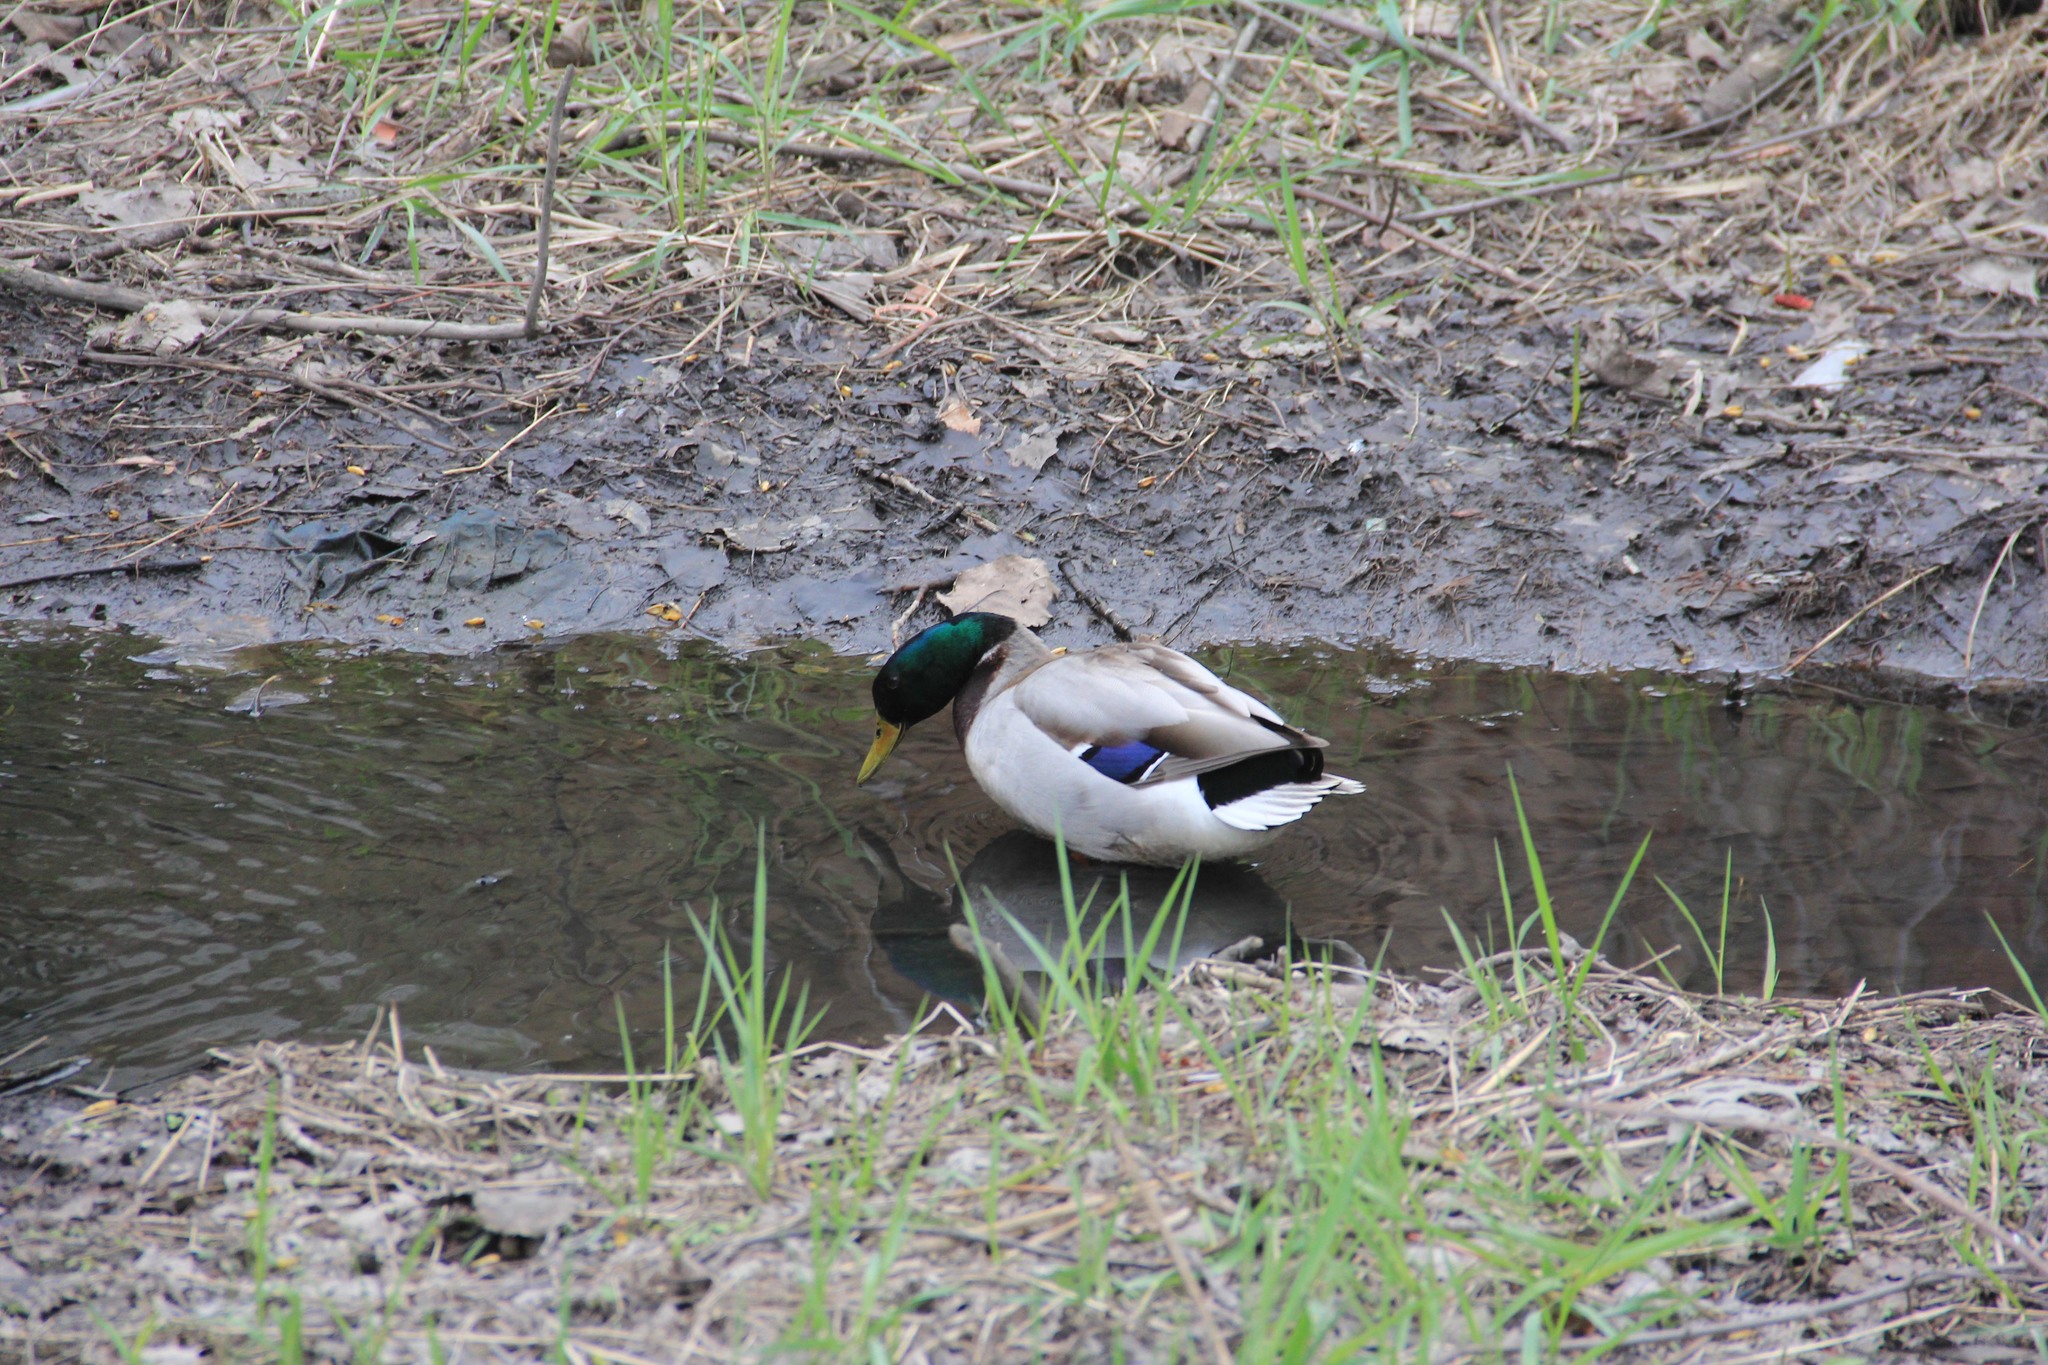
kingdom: Animalia
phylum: Chordata
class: Aves
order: Anseriformes
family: Anatidae
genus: Anas
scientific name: Anas platyrhynchos
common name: Mallard
